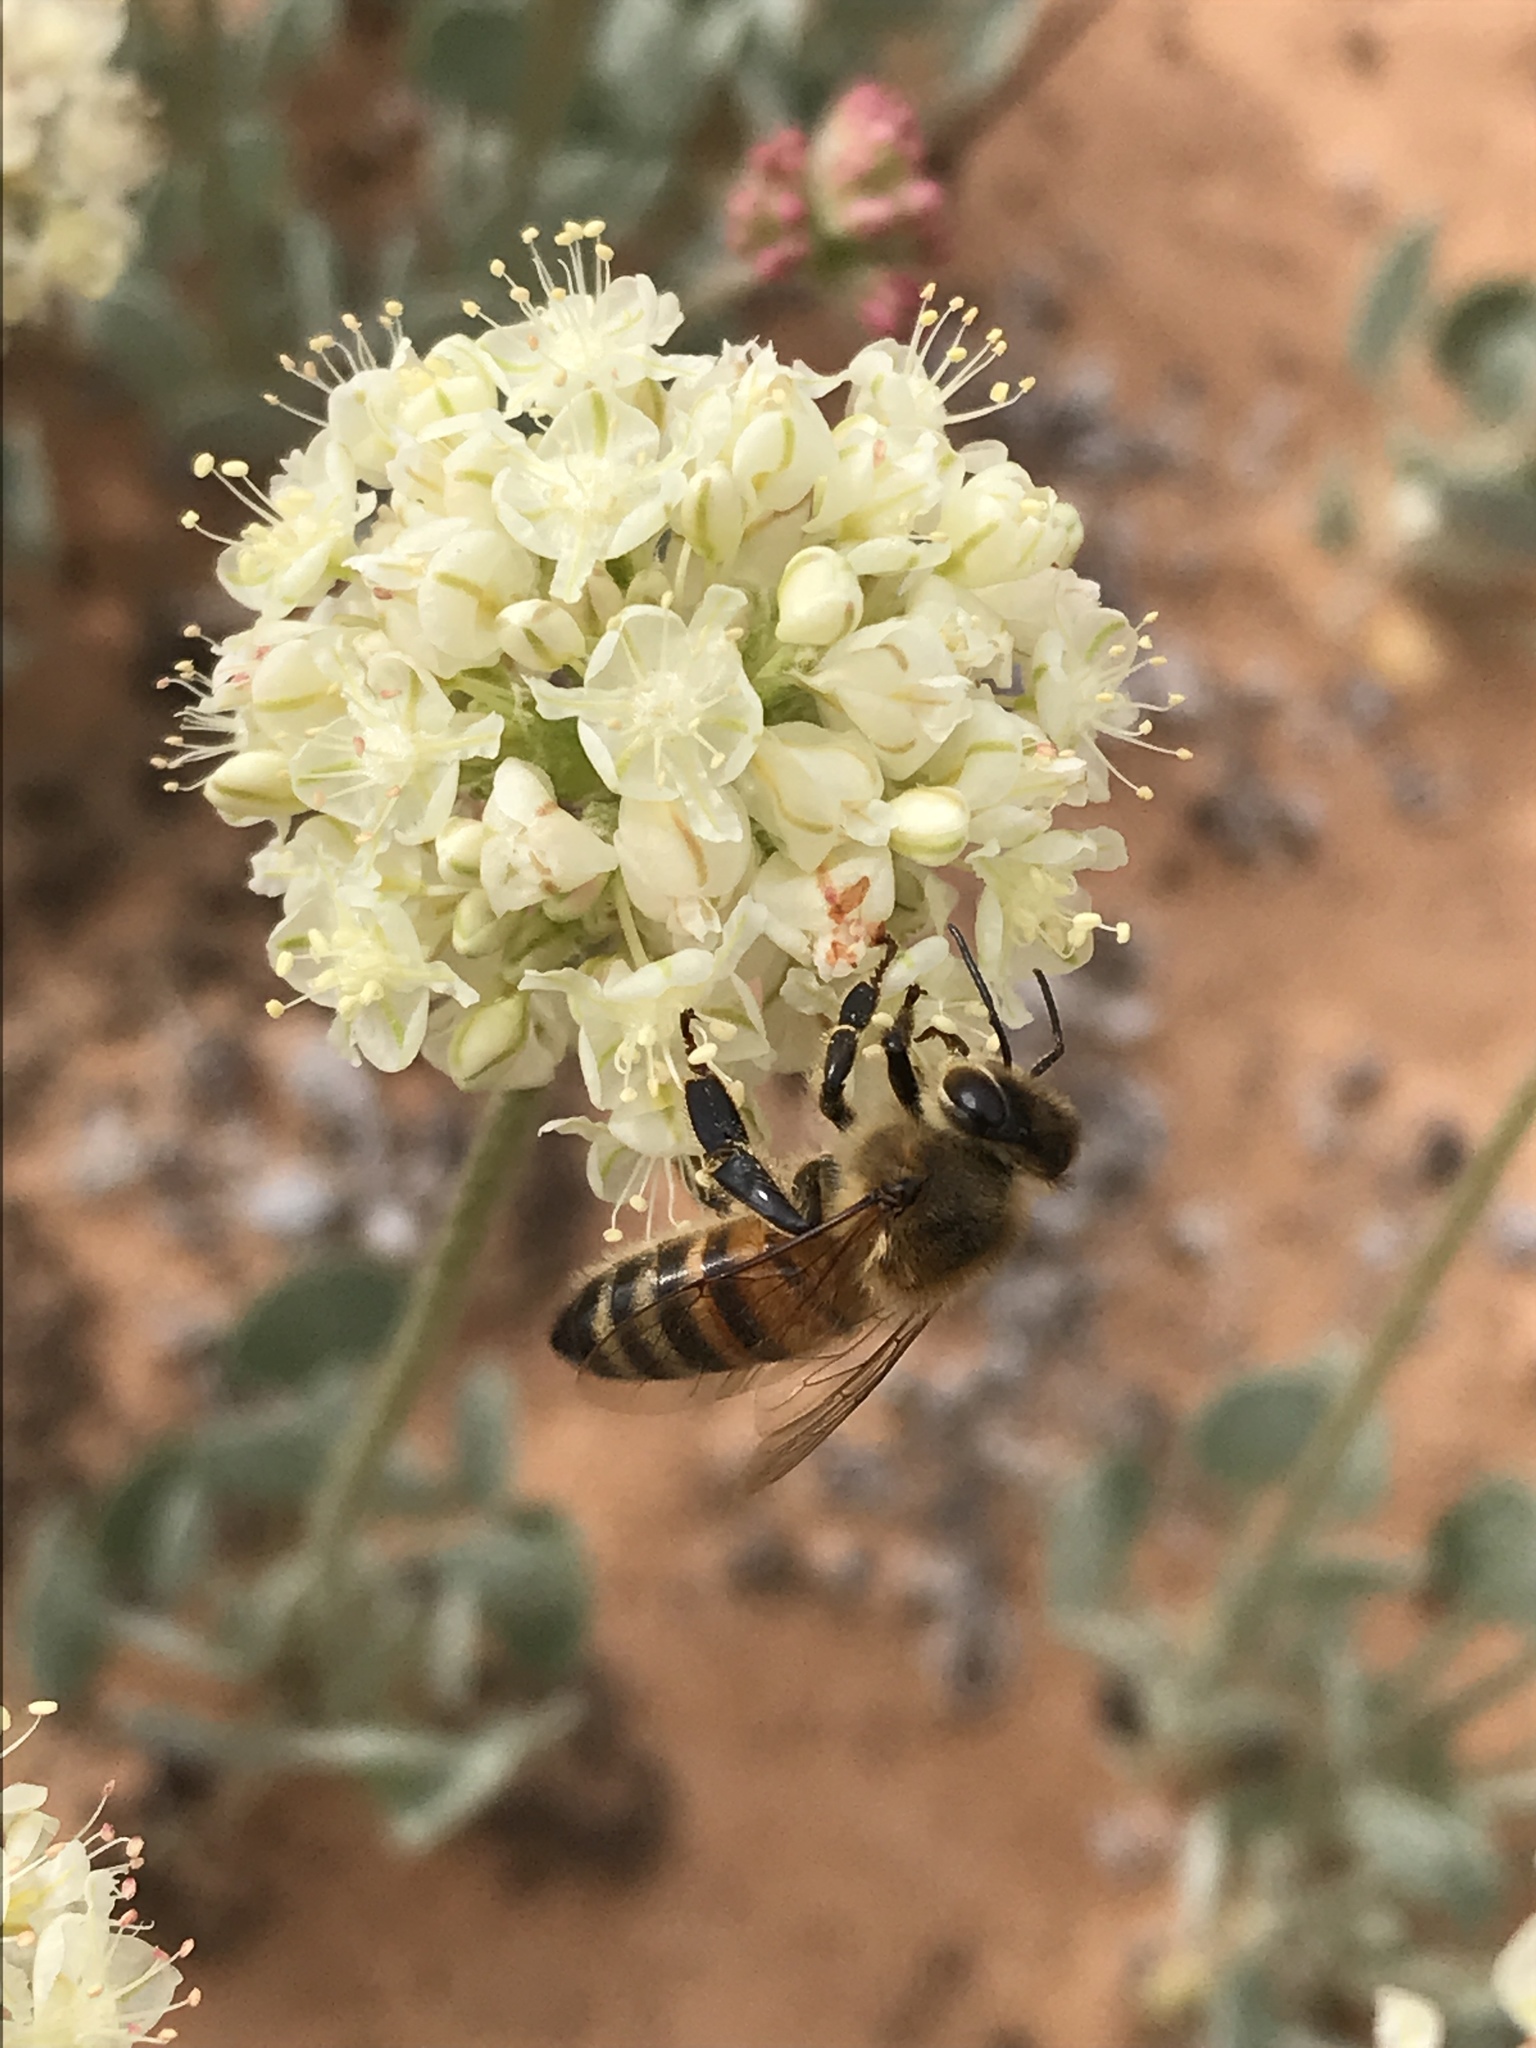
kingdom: Animalia
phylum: Arthropoda
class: Insecta
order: Hymenoptera
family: Apidae
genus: Apis
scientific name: Apis mellifera
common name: Honey bee
